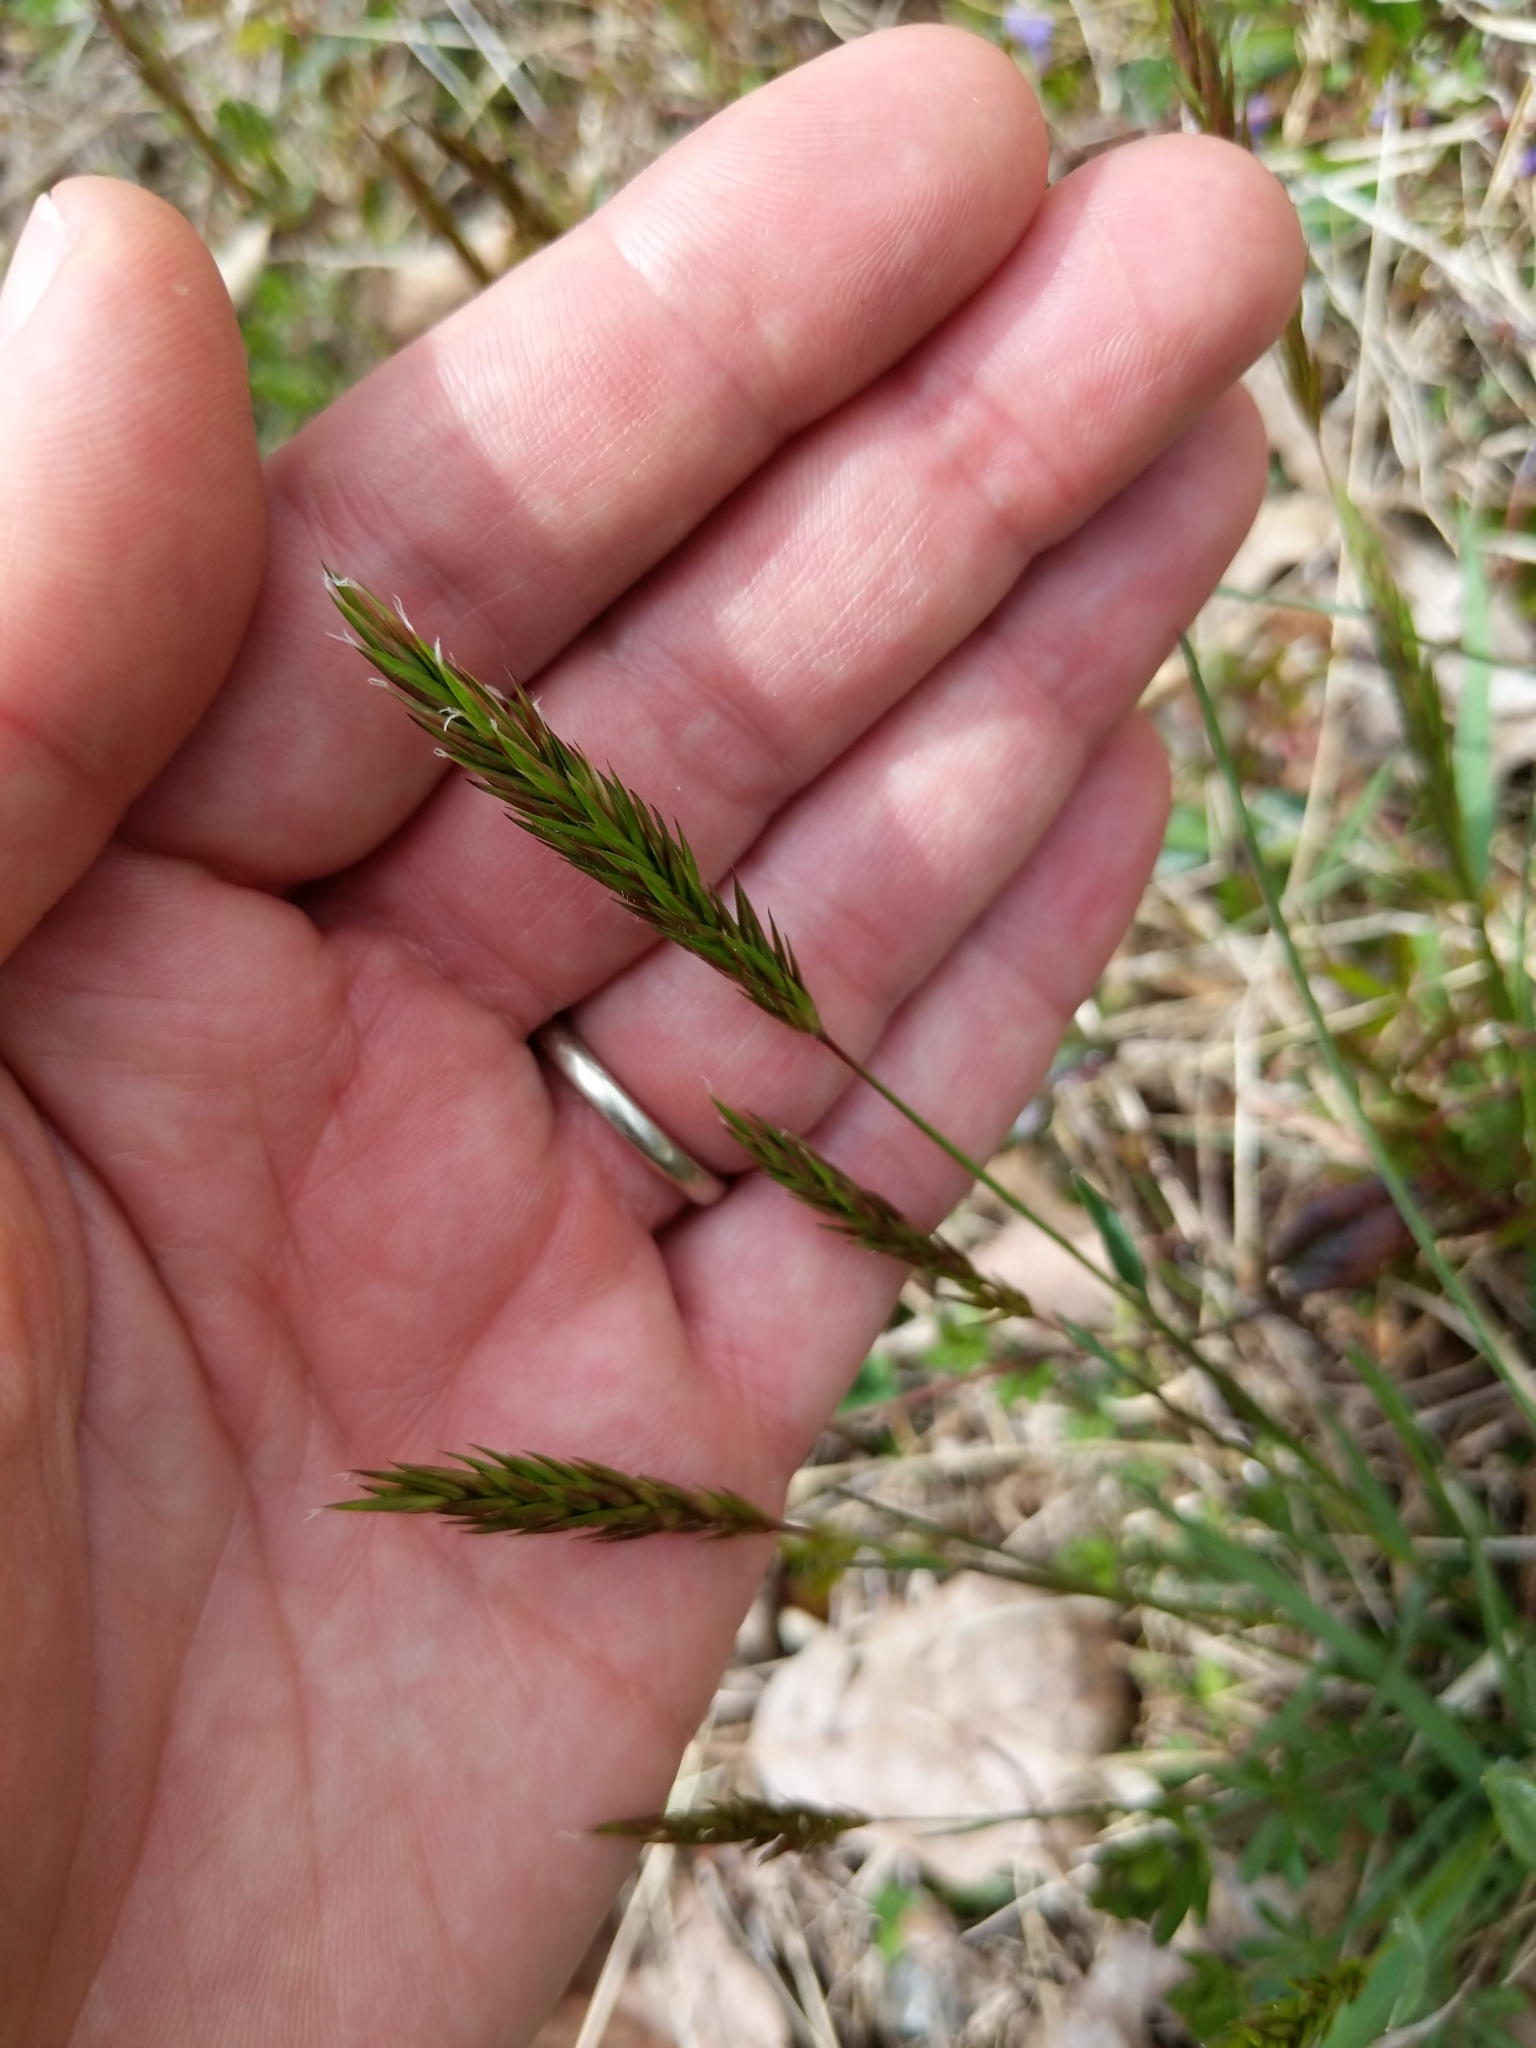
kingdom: Plantae
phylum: Tracheophyta
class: Liliopsida
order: Poales
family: Poaceae
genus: Anthoxanthum
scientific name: Anthoxanthum odoratum
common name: Sweet vernalgrass
